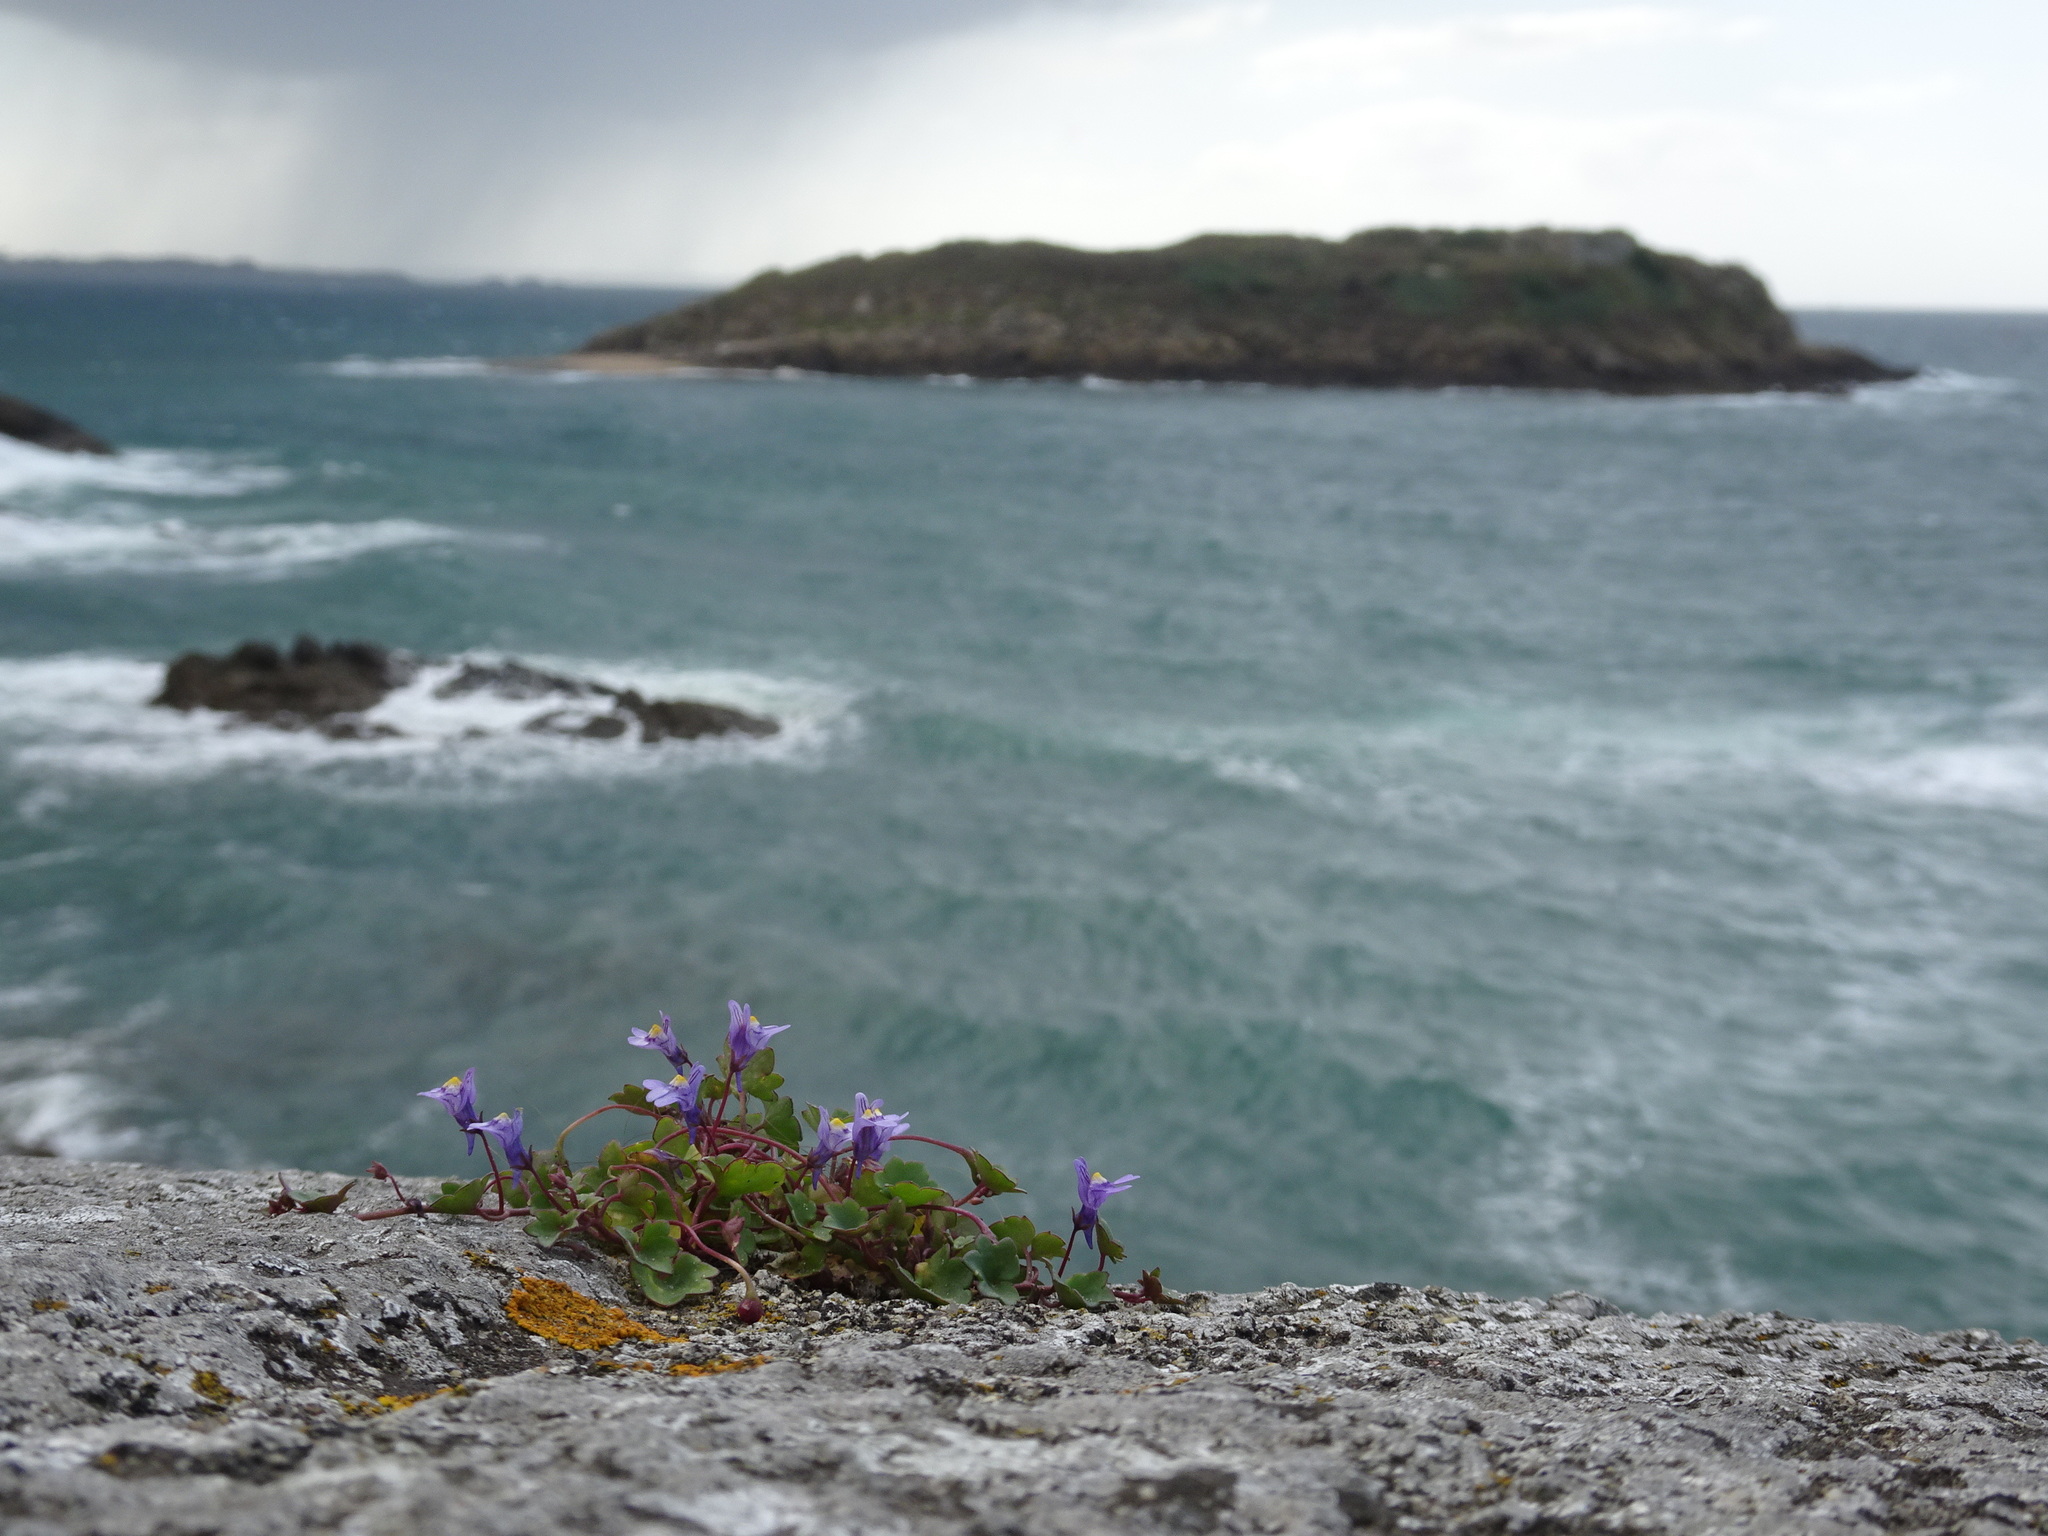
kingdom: Plantae
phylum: Tracheophyta
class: Magnoliopsida
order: Lamiales
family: Plantaginaceae
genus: Cymbalaria
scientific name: Cymbalaria muralis
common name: Ivy-leaved toadflax
